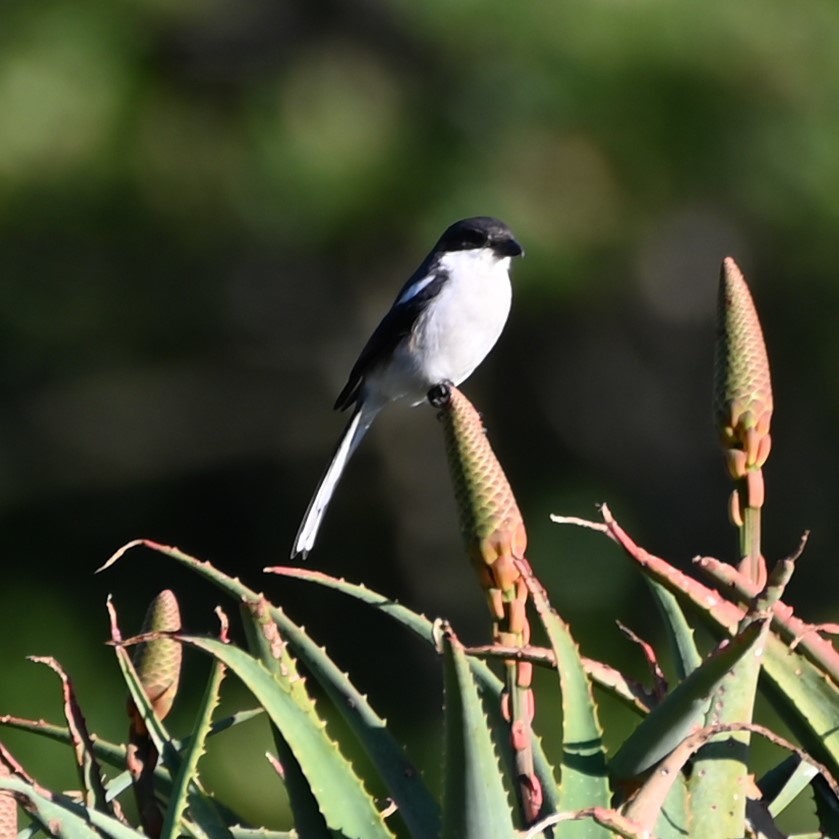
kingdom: Animalia
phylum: Chordata
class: Aves
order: Passeriformes
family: Laniidae
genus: Lanius
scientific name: Lanius collaris
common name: Southern fiscal
